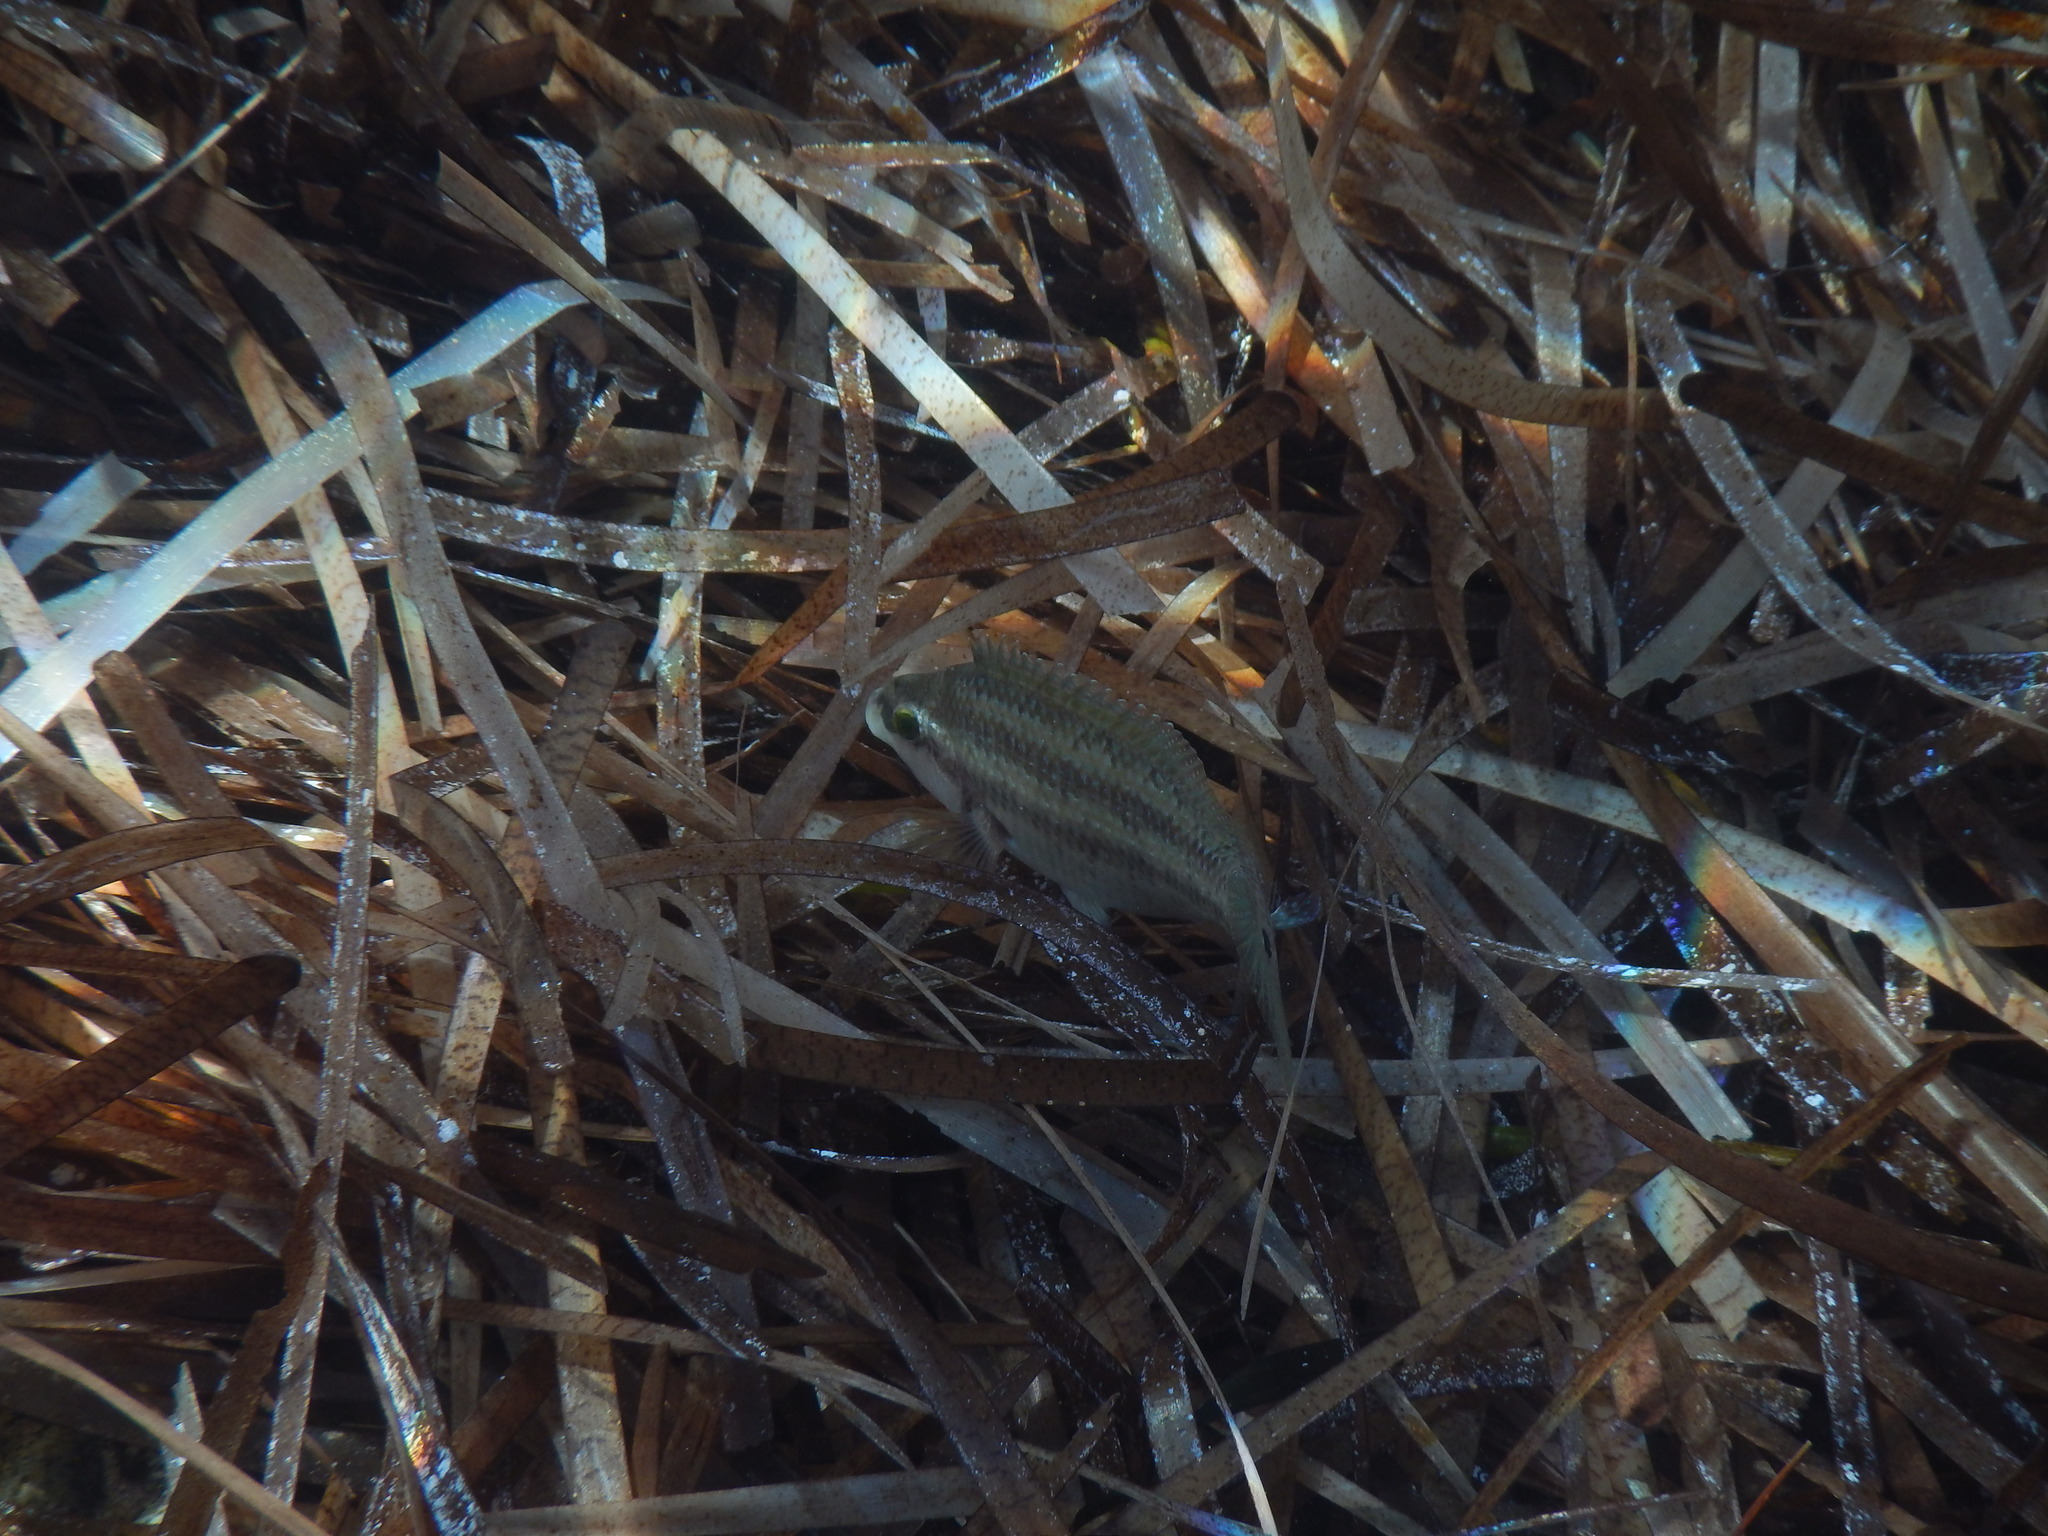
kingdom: Animalia
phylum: Chordata
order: Perciformes
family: Labridae
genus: Symphodus
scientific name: Symphodus tinca
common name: Peacock wrasse
